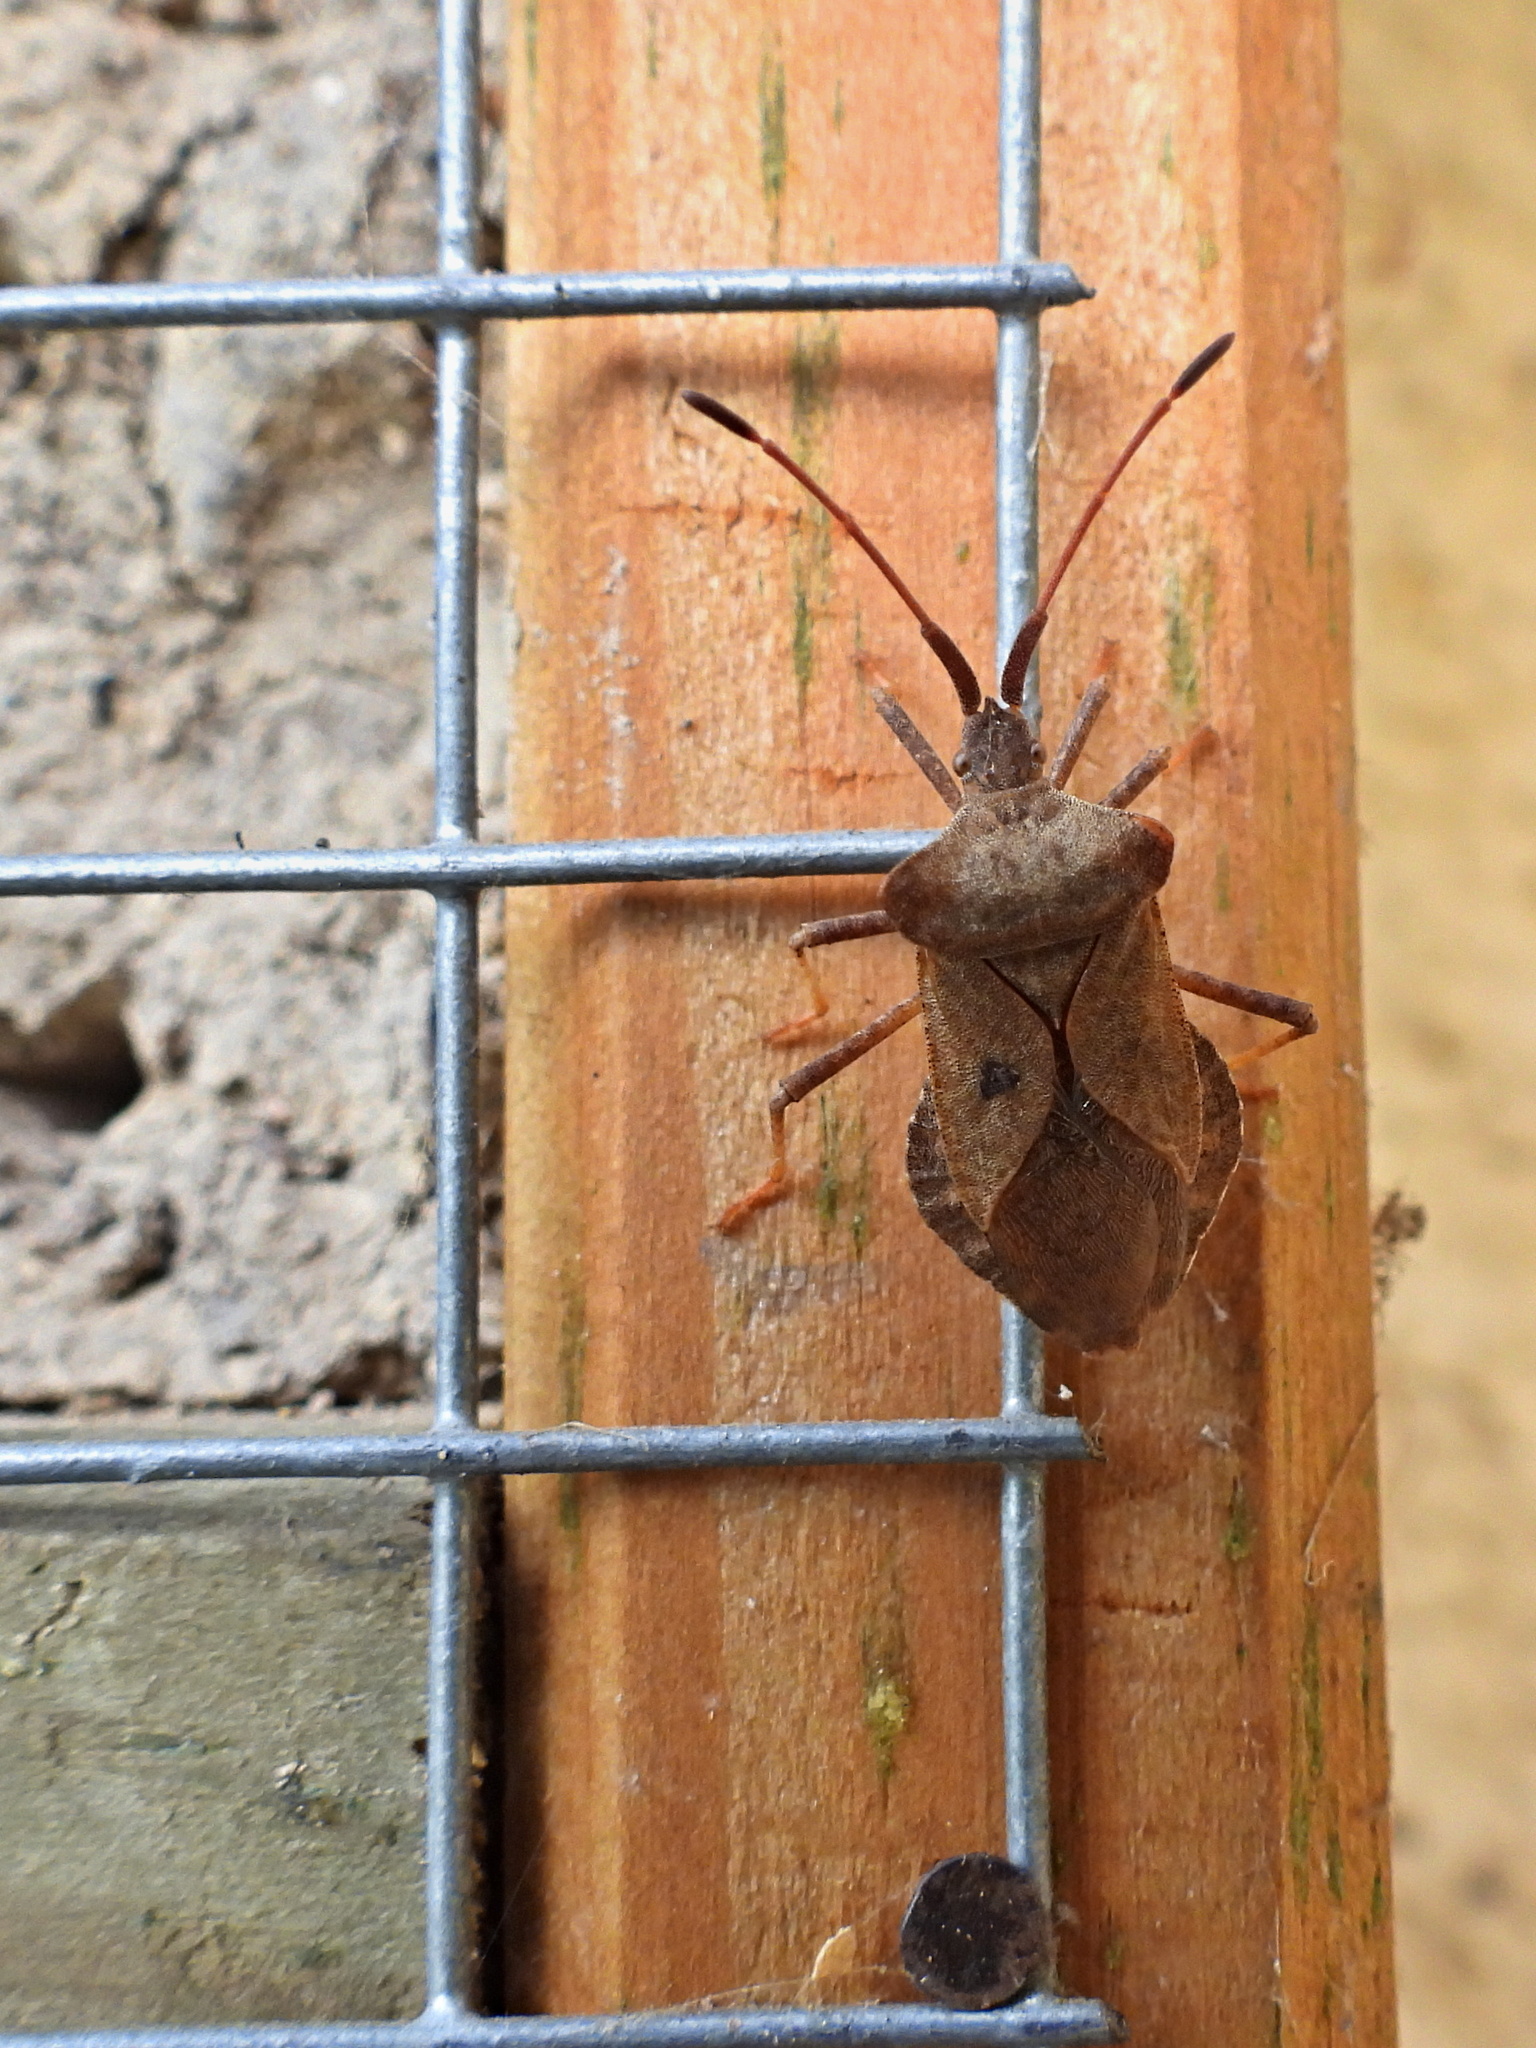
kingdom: Animalia
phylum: Arthropoda
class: Insecta
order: Hemiptera
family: Coreidae
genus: Coreus
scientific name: Coreus marginatus
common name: Dock bug
